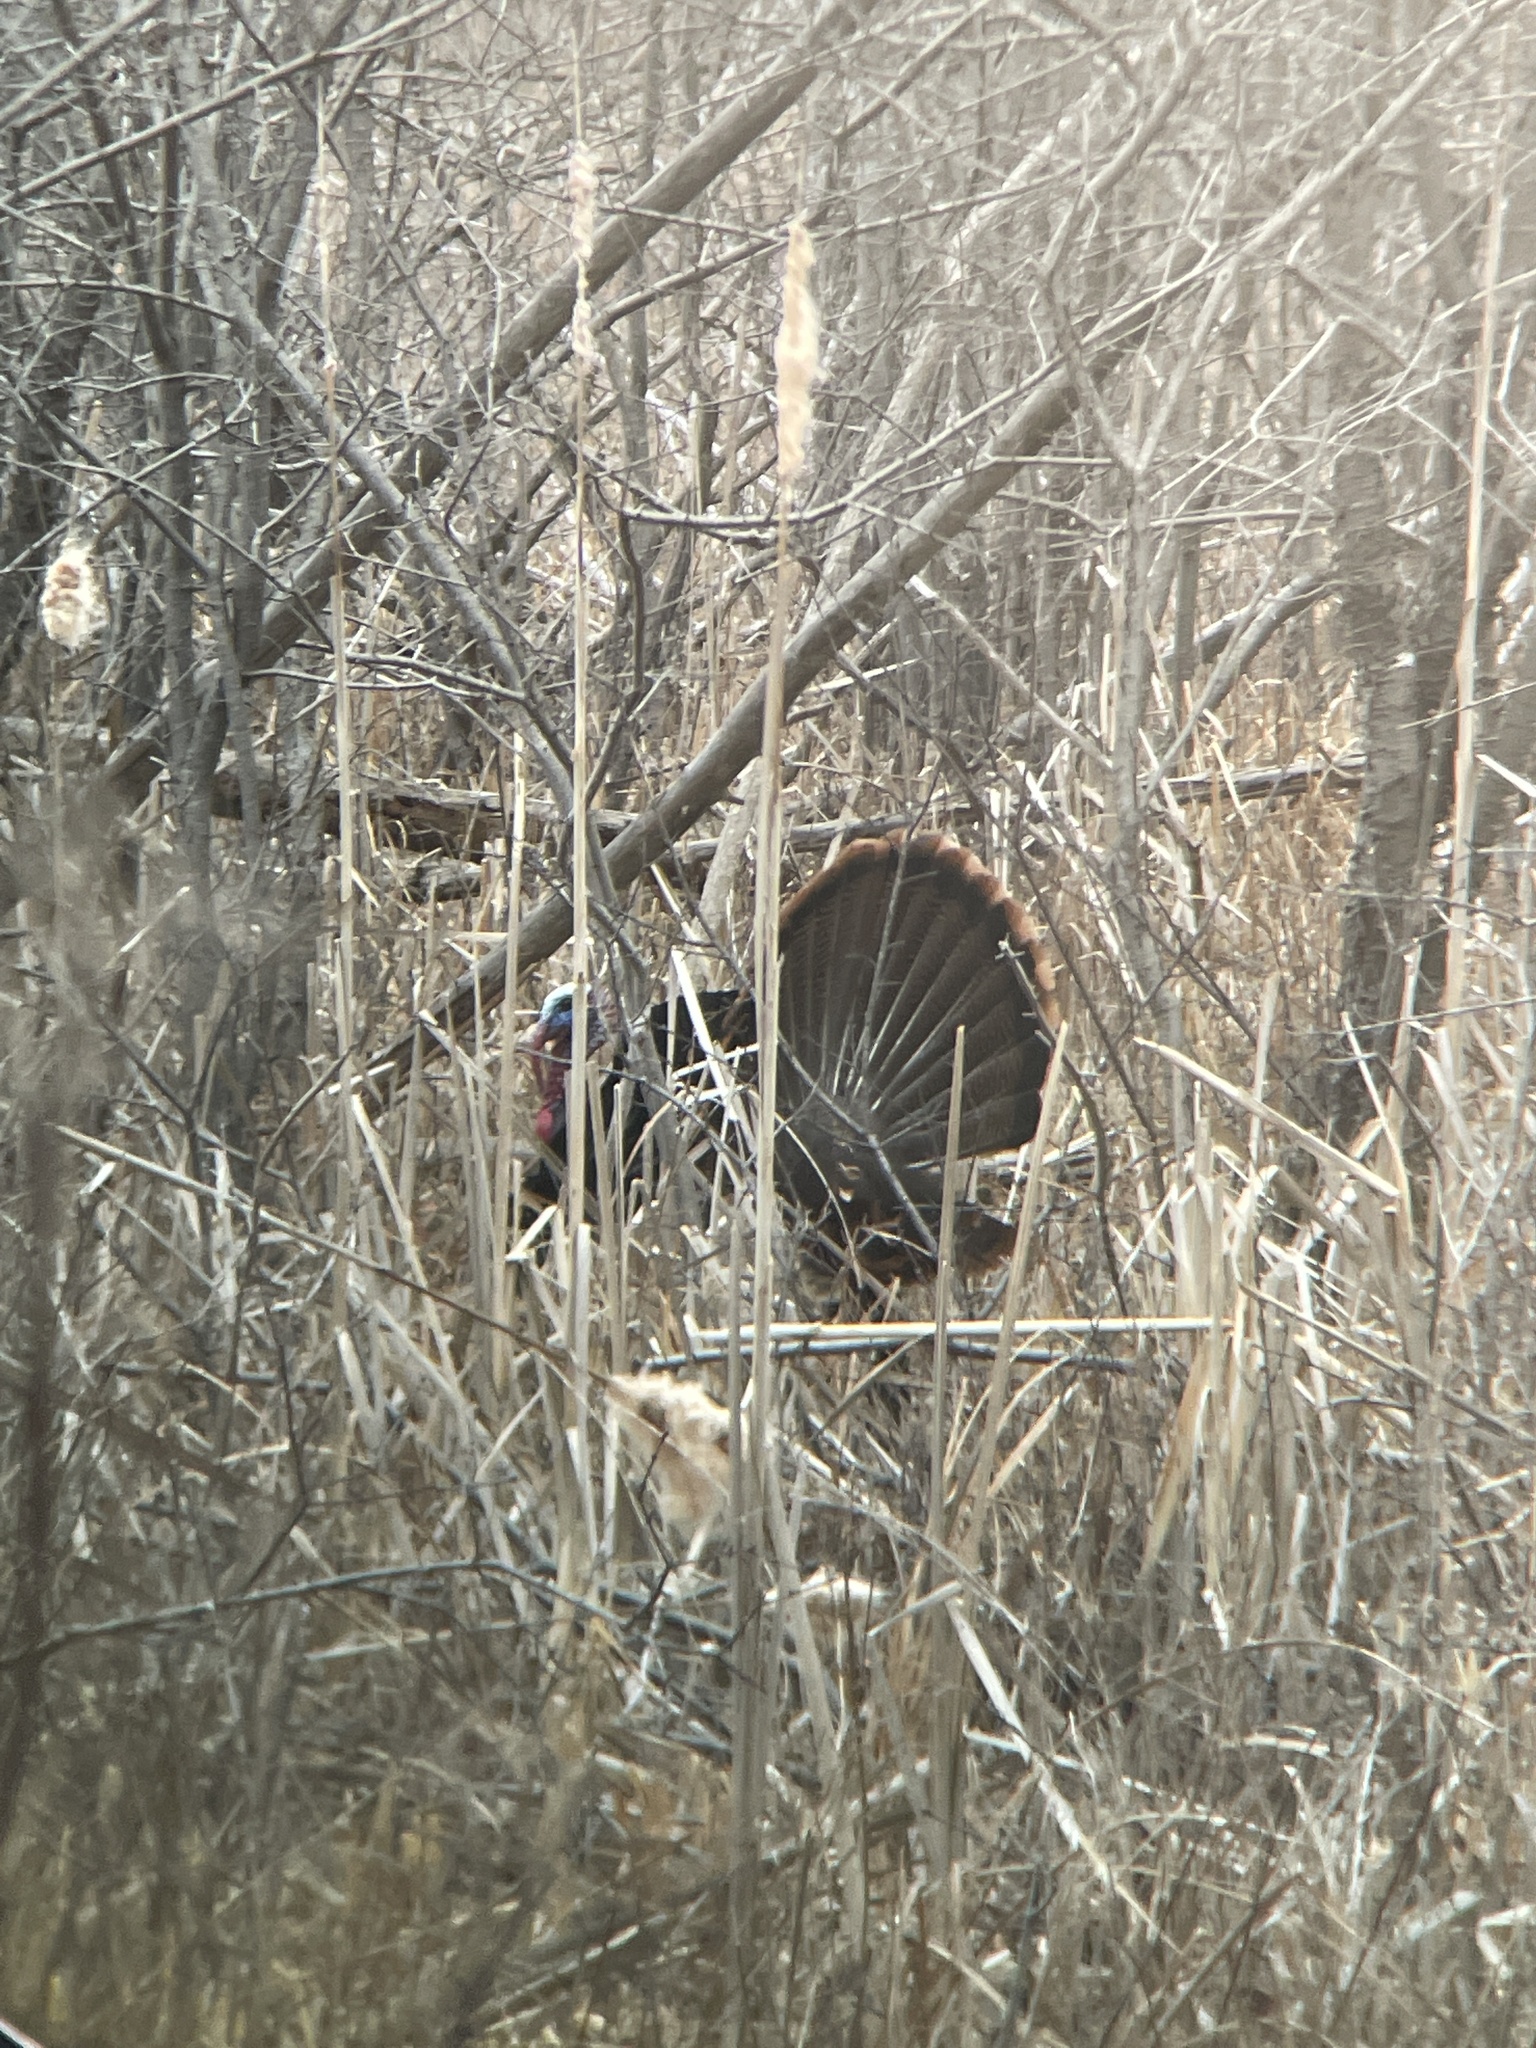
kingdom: Animalia
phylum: Chordata
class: Aves
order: Galliformes
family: Phasianidae
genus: Meleagris
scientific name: Meleagris gallopavo
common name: Wild turkey
